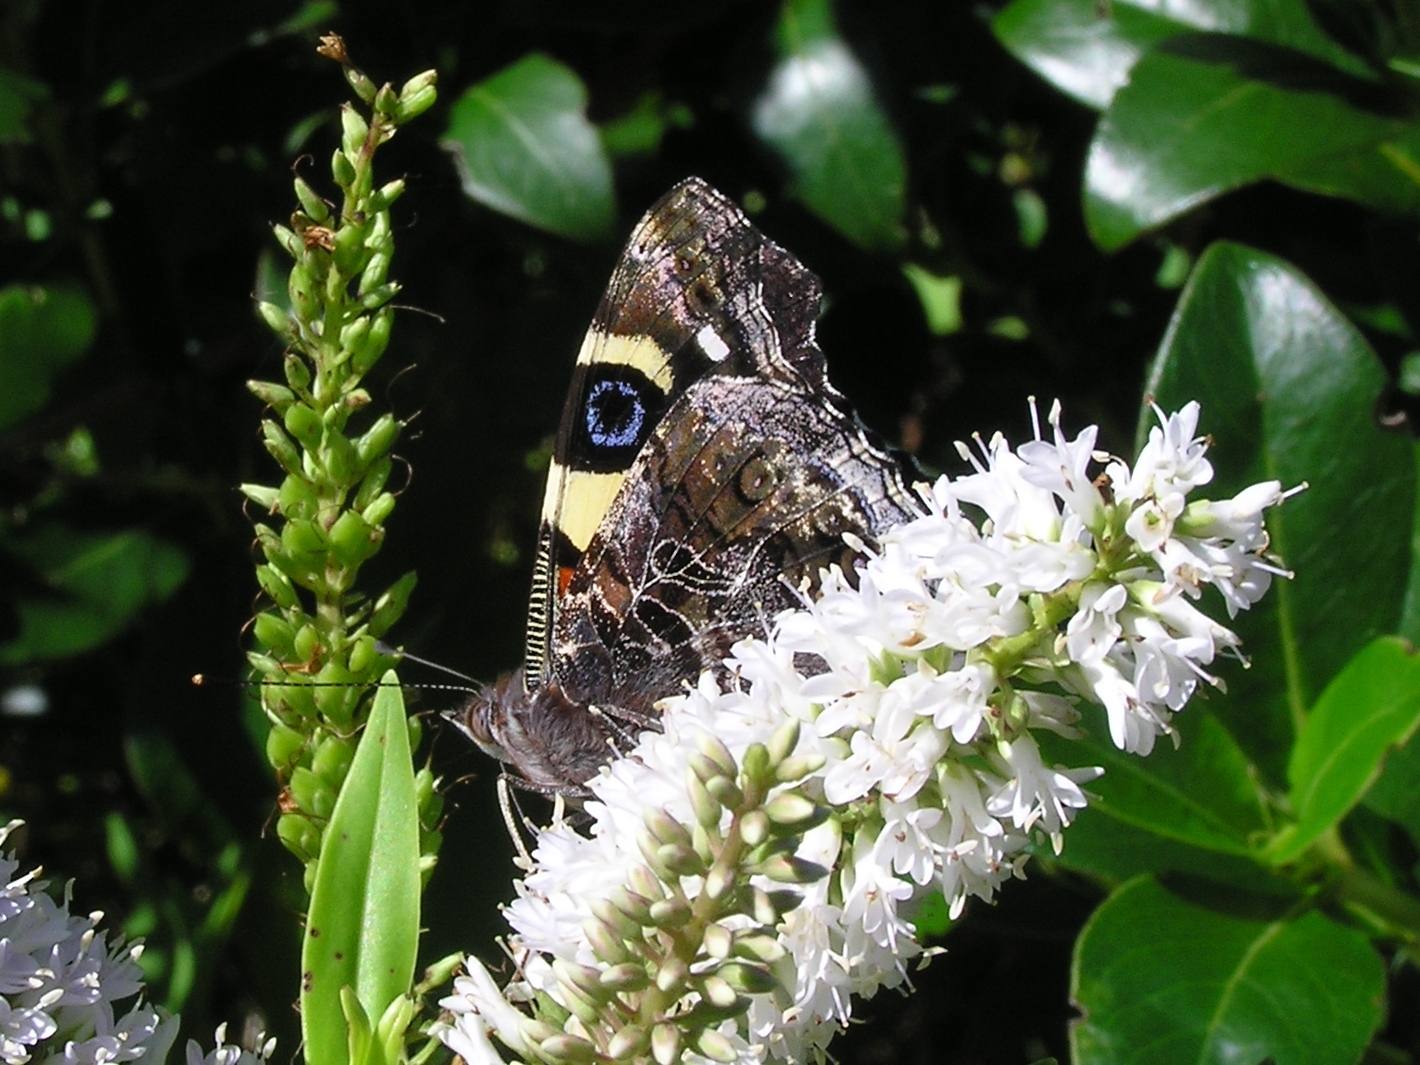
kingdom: Animalia
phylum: Arthropoda
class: Insecta
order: Lepidoptera
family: Nymphalidae
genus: Vanessa
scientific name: Vanessa itea
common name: Yellow admiral
